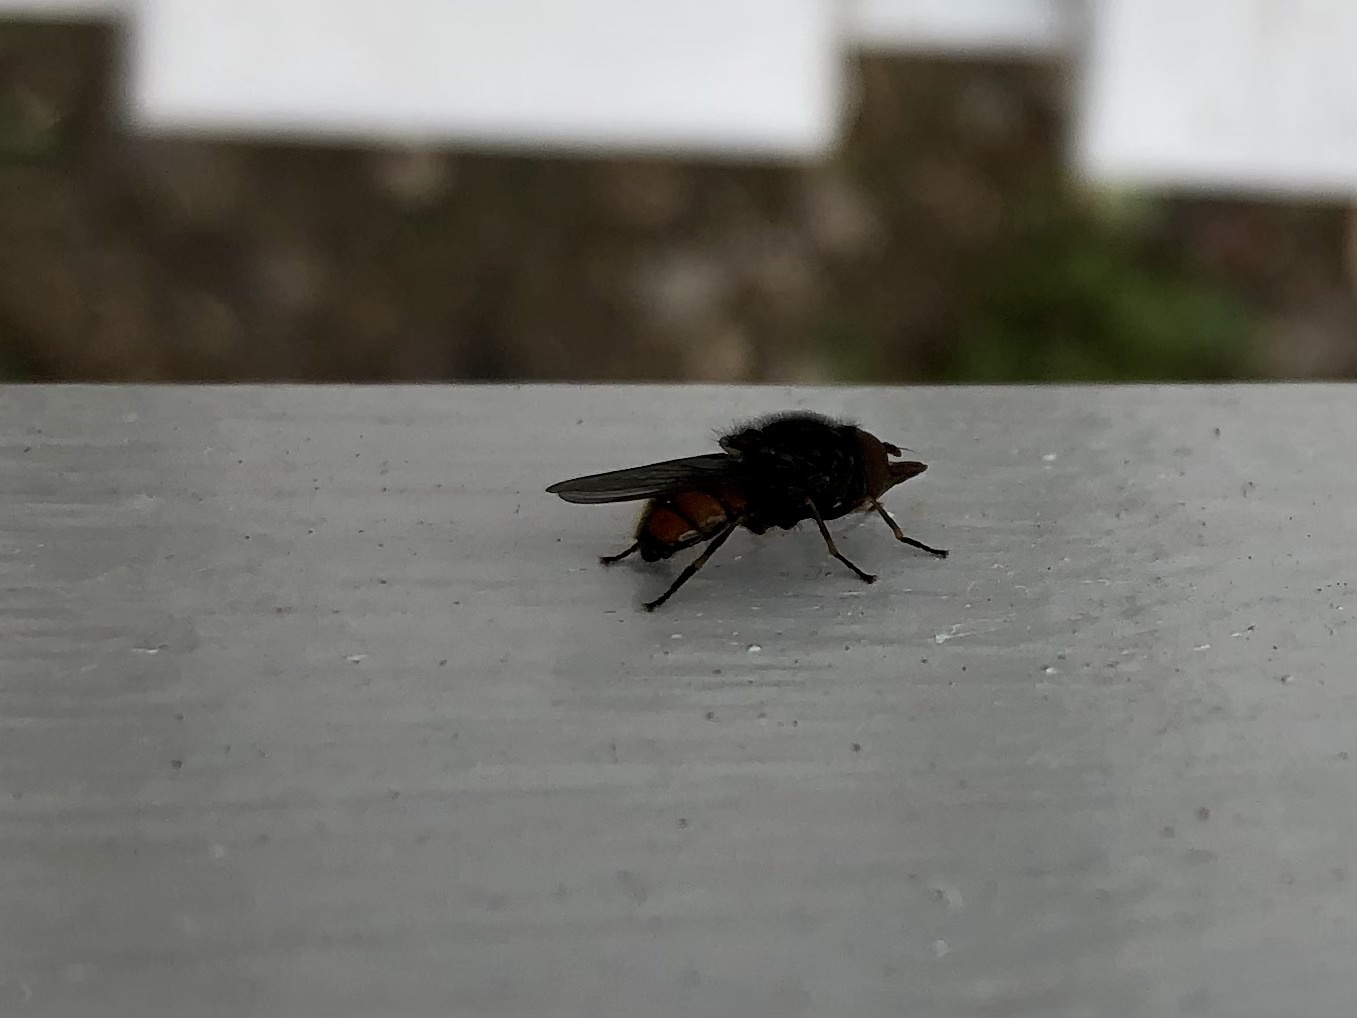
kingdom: Animalia
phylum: Arthropoda
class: Insecta
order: Diptera
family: Syrphidae
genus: Rhingia
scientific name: Rhingia campestris
